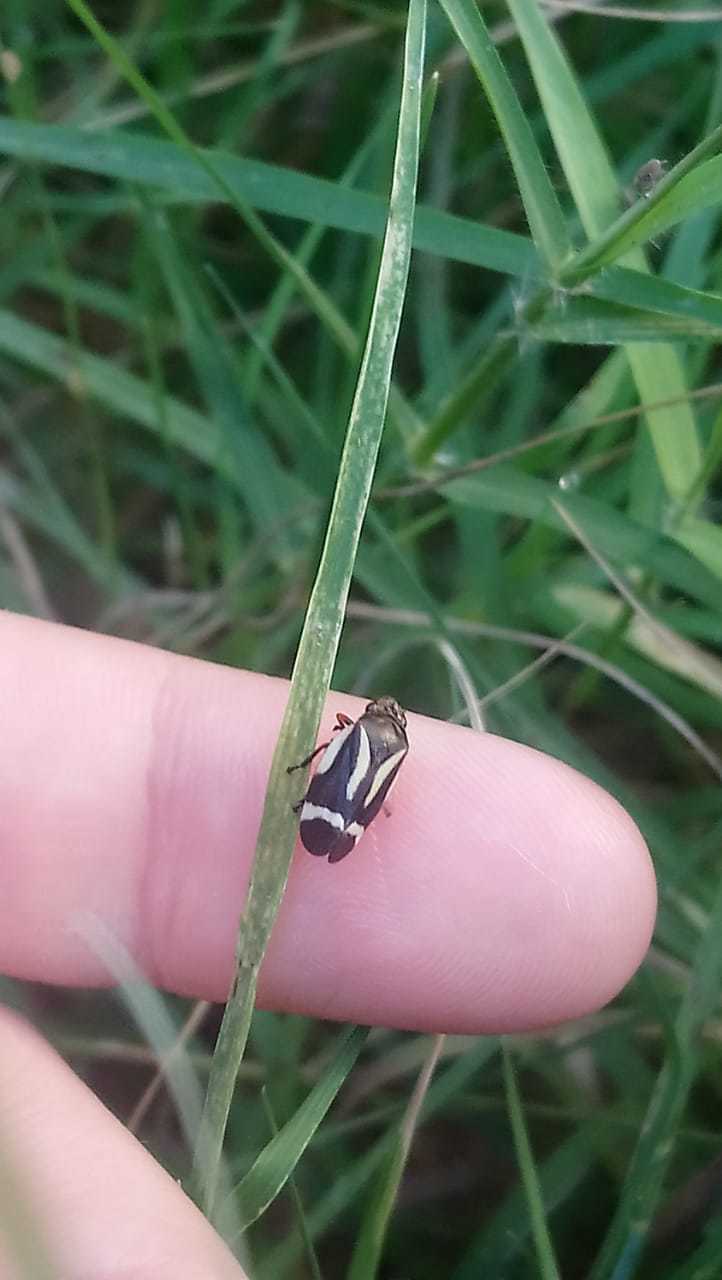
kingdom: Animalia
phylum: Arthropoda
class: Insecta
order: Hemiptera
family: Cercopidae
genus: Notozulia
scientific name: Notozulia entreriana
